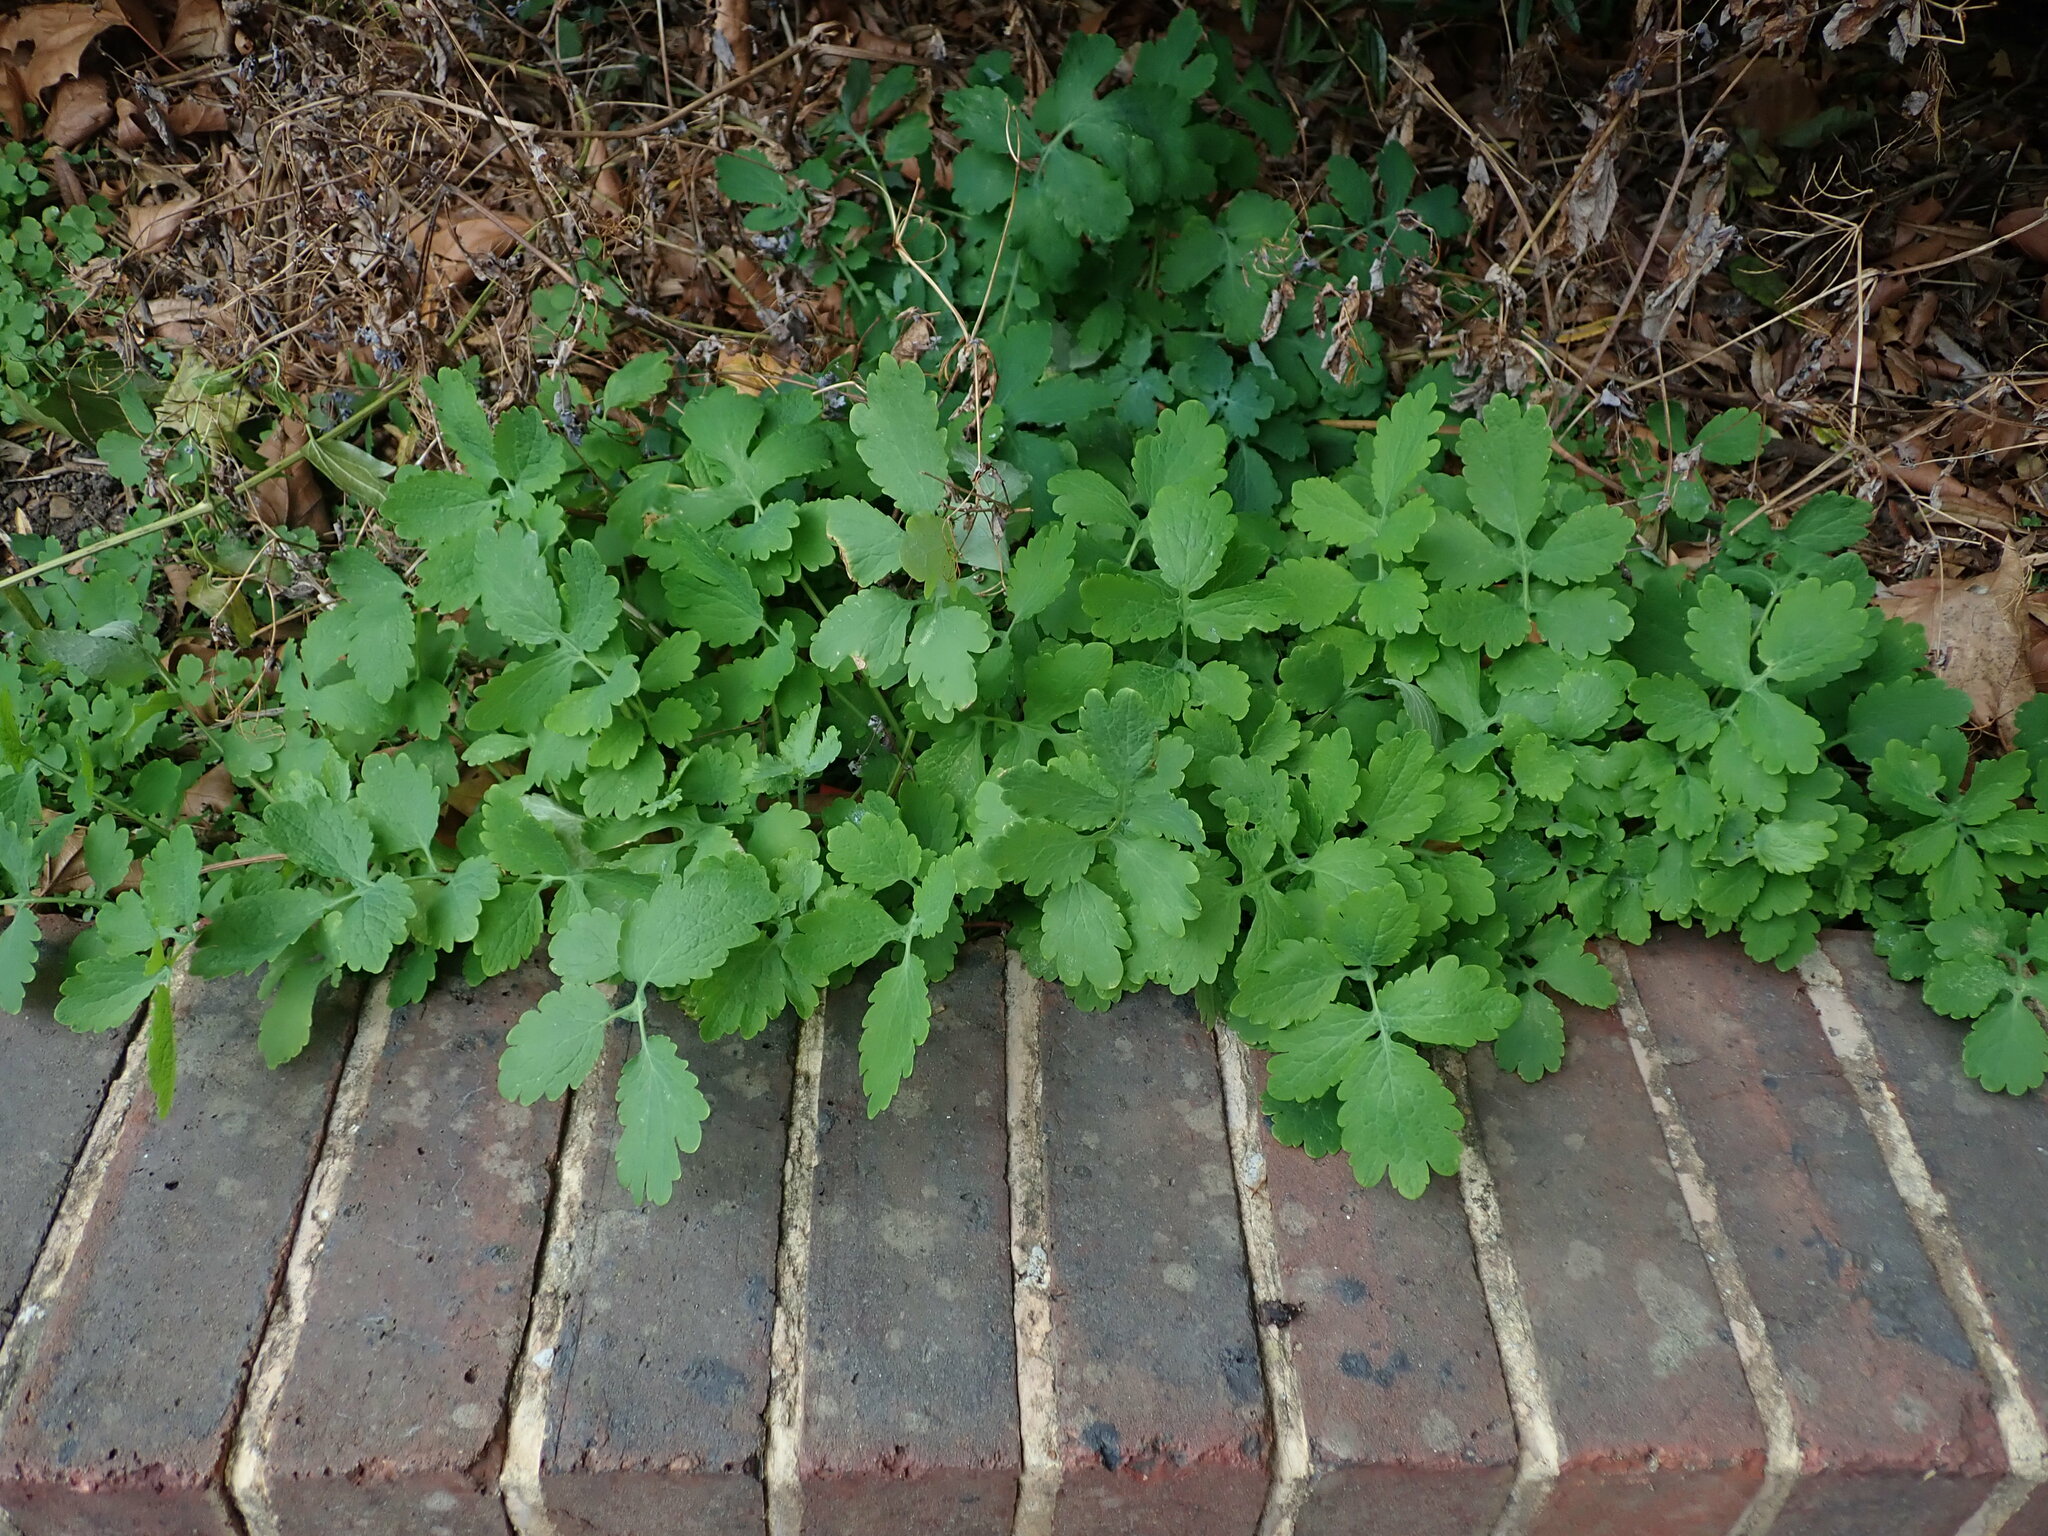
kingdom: Plantae
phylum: Tracheophyta
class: Magnoliopsida
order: Ranunculales
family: Papaveraceae
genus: Chelidonium
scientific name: Chelidonium majus
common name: Greater celandine
